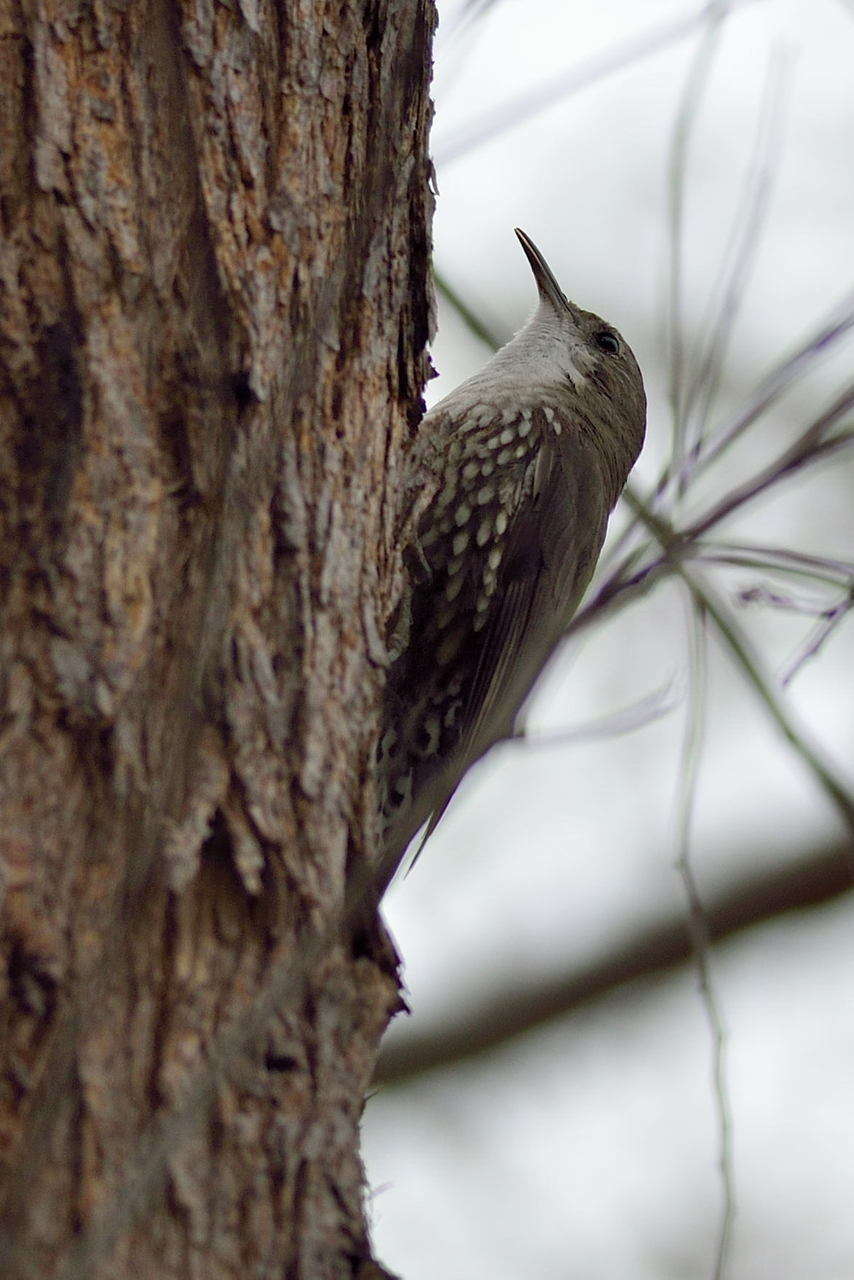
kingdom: Animalia
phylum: Chordata
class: Aves
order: Passeriformes
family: Climacteridae
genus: Cormobates
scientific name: Cormobates leucophaea
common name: White-throated treecreeper
